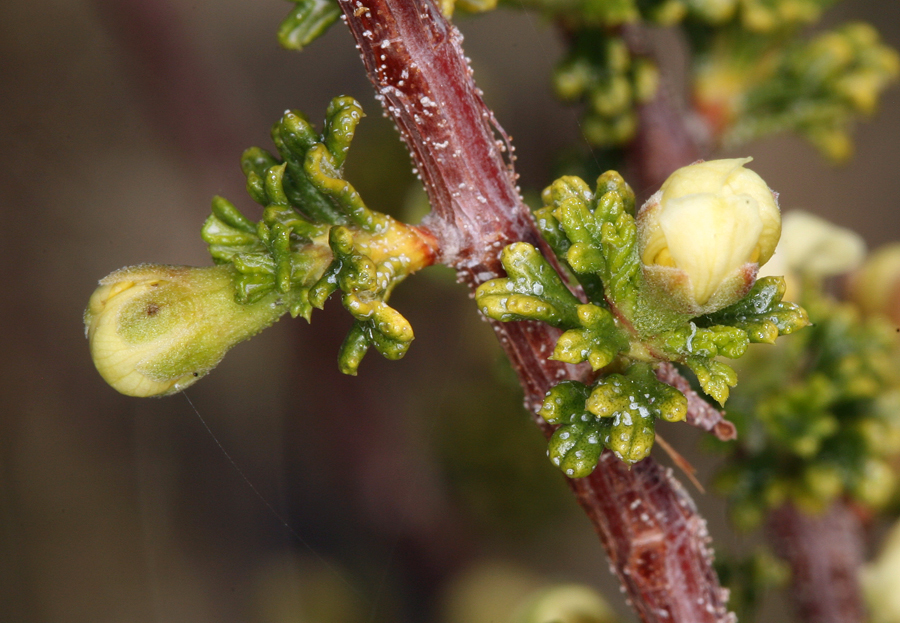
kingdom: Plantae
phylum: Tracheophyta
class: Magnoliopsida
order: Rosales
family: Rosaceae
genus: Purshia
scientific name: Purshia glandulosa
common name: Desert bitterbrush
